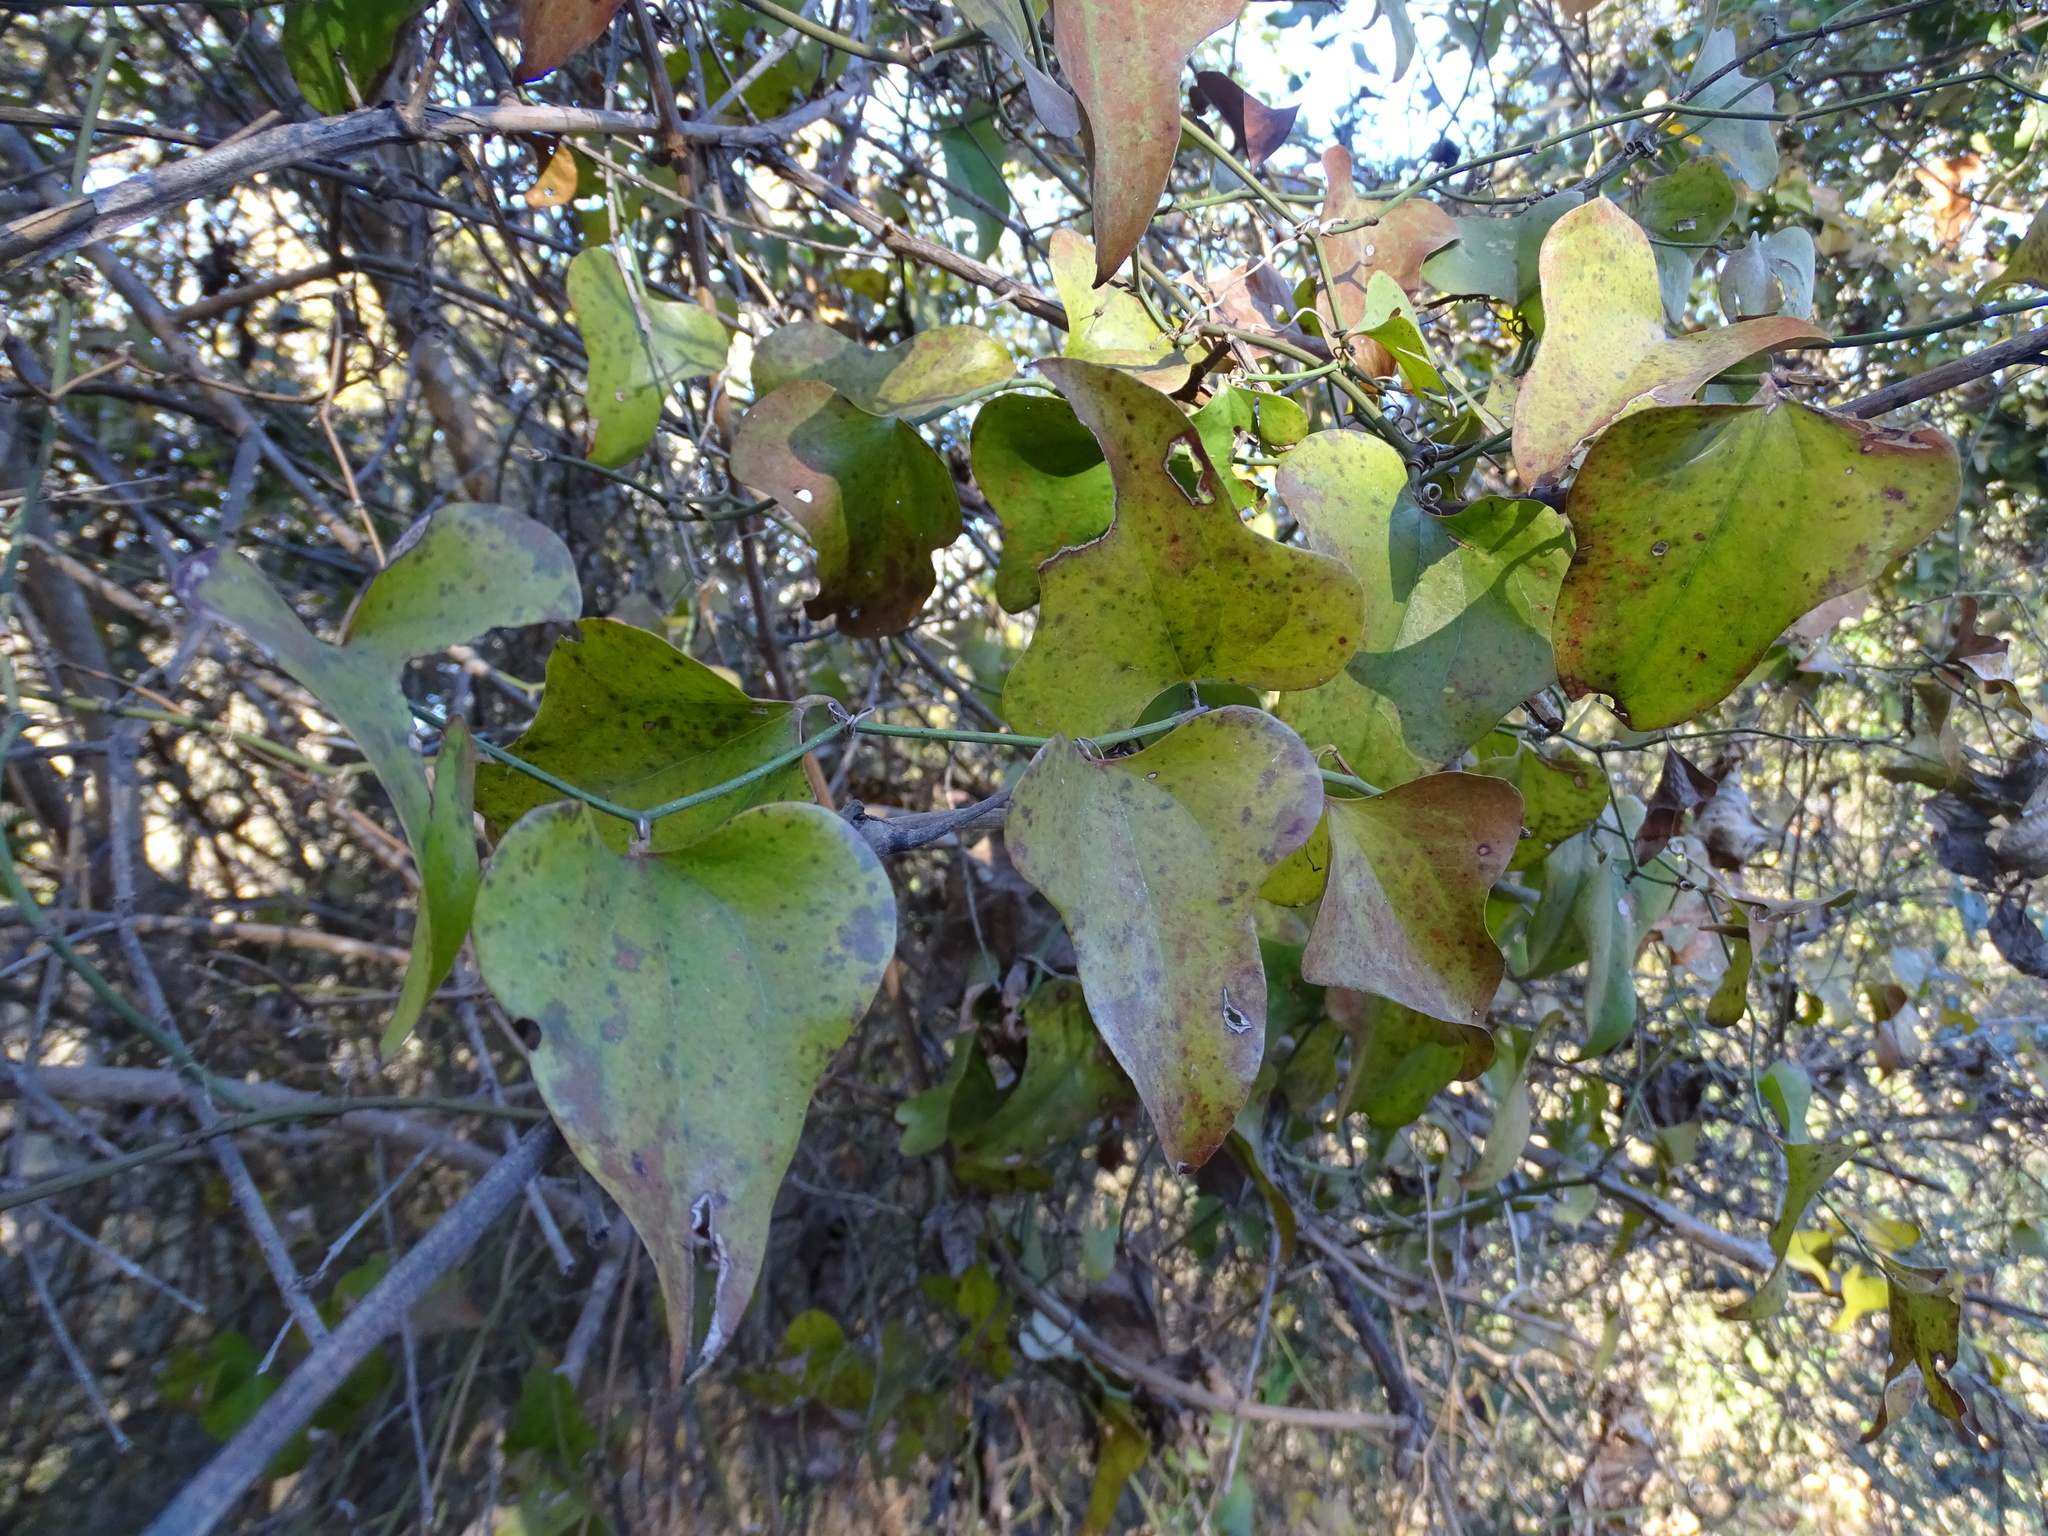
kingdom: Plantae
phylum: Tracheophyta
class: Liliopsida
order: Liliales
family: Smilacaceae
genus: Smilax
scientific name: Smilax bona-nox
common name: Catbrier
